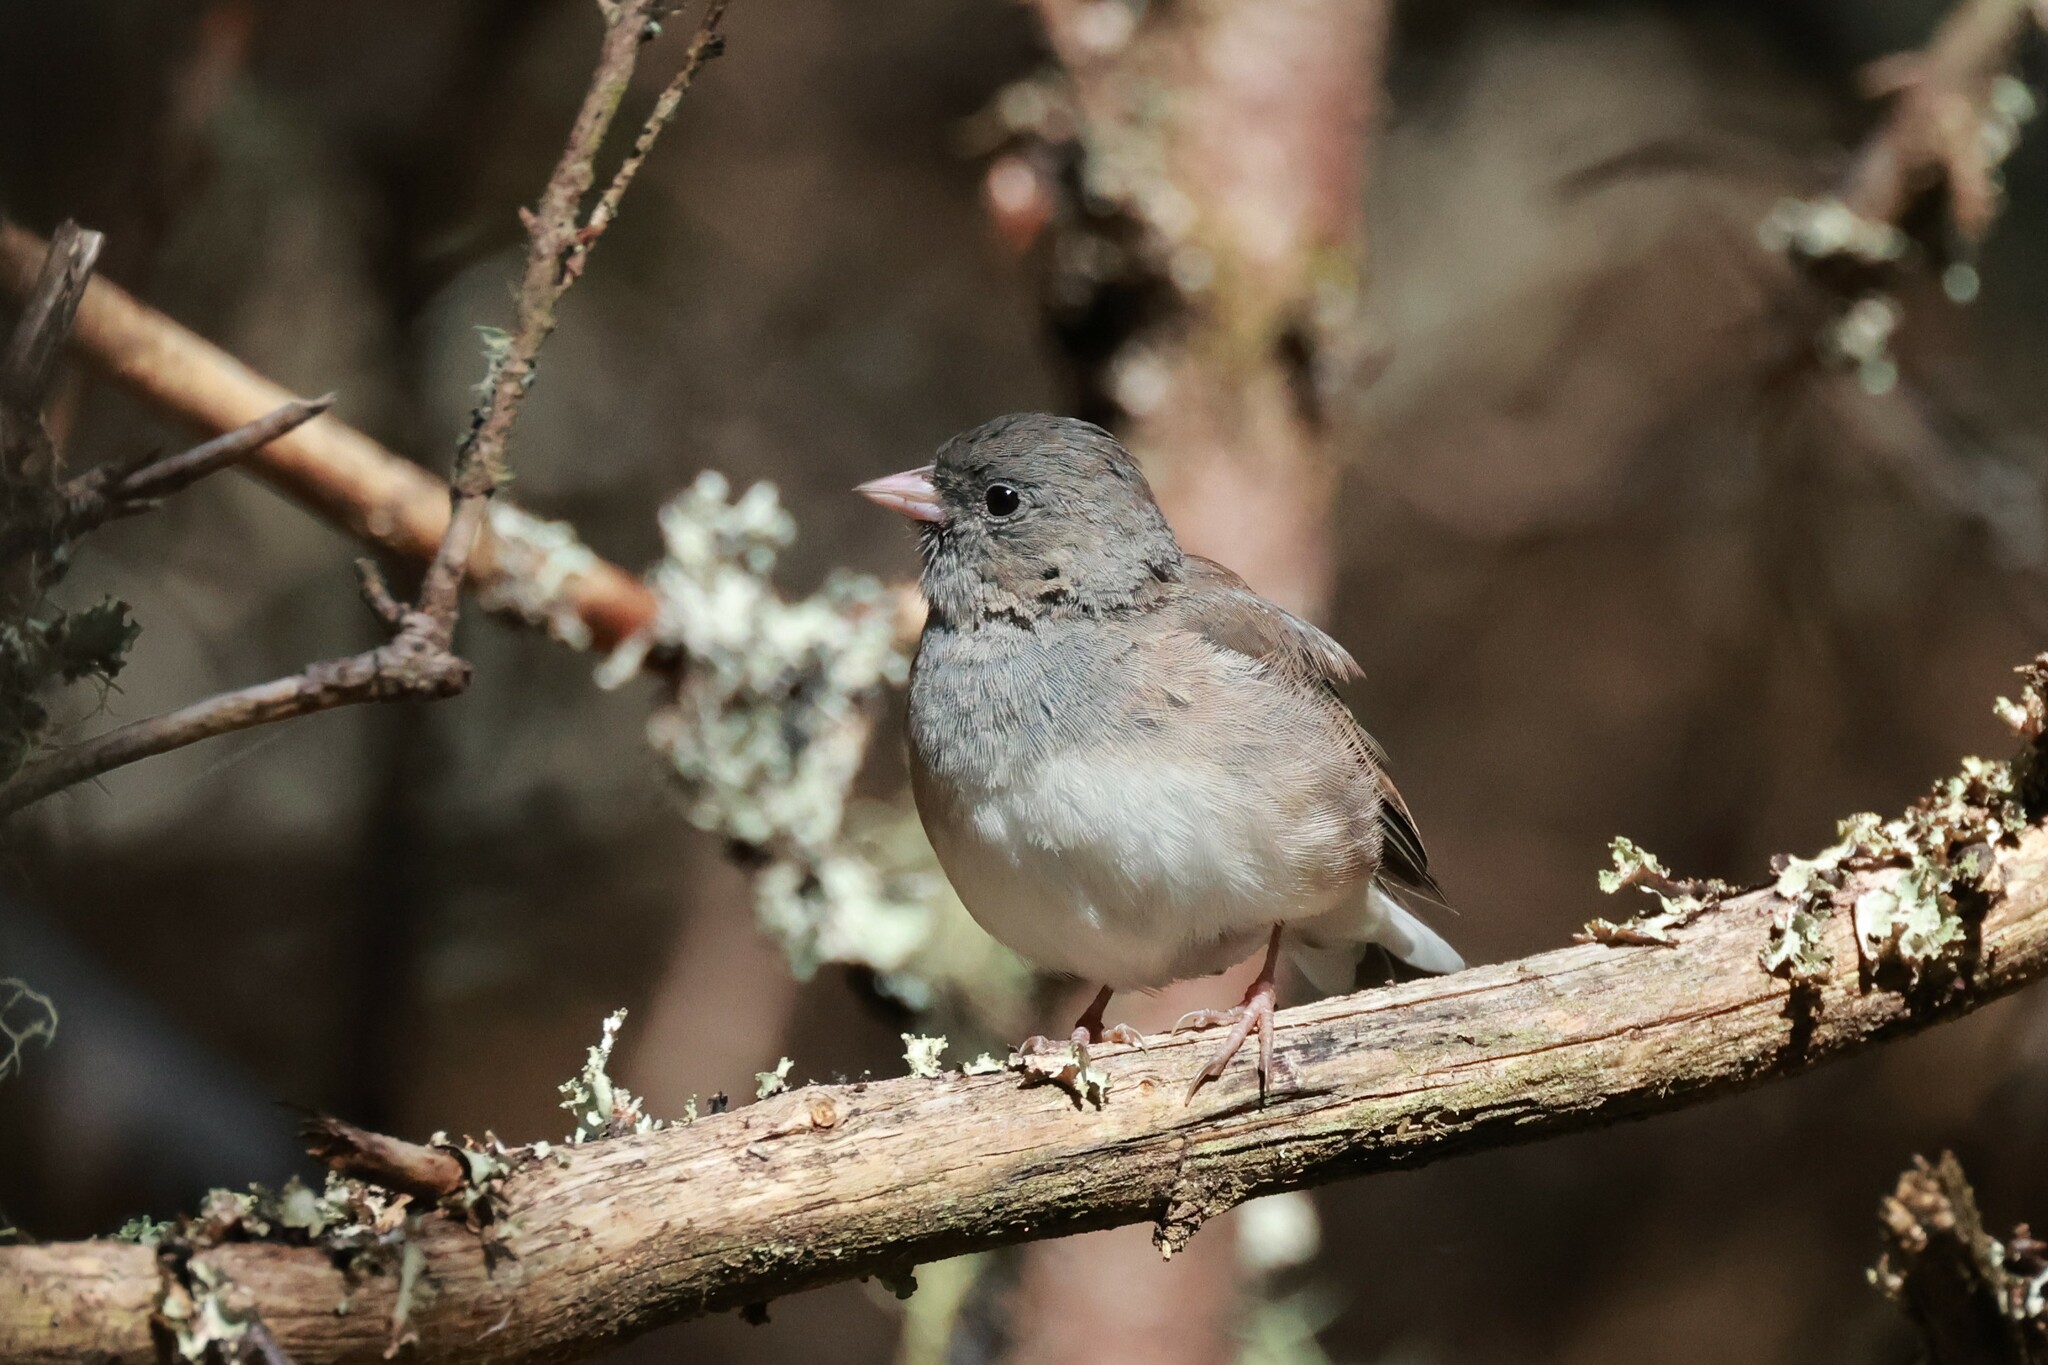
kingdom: Animalia
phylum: Chordata
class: Aves
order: Passeriformes
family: Passerellidae
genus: Junco
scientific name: Junco hyemalis
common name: Dark-eyed junco
